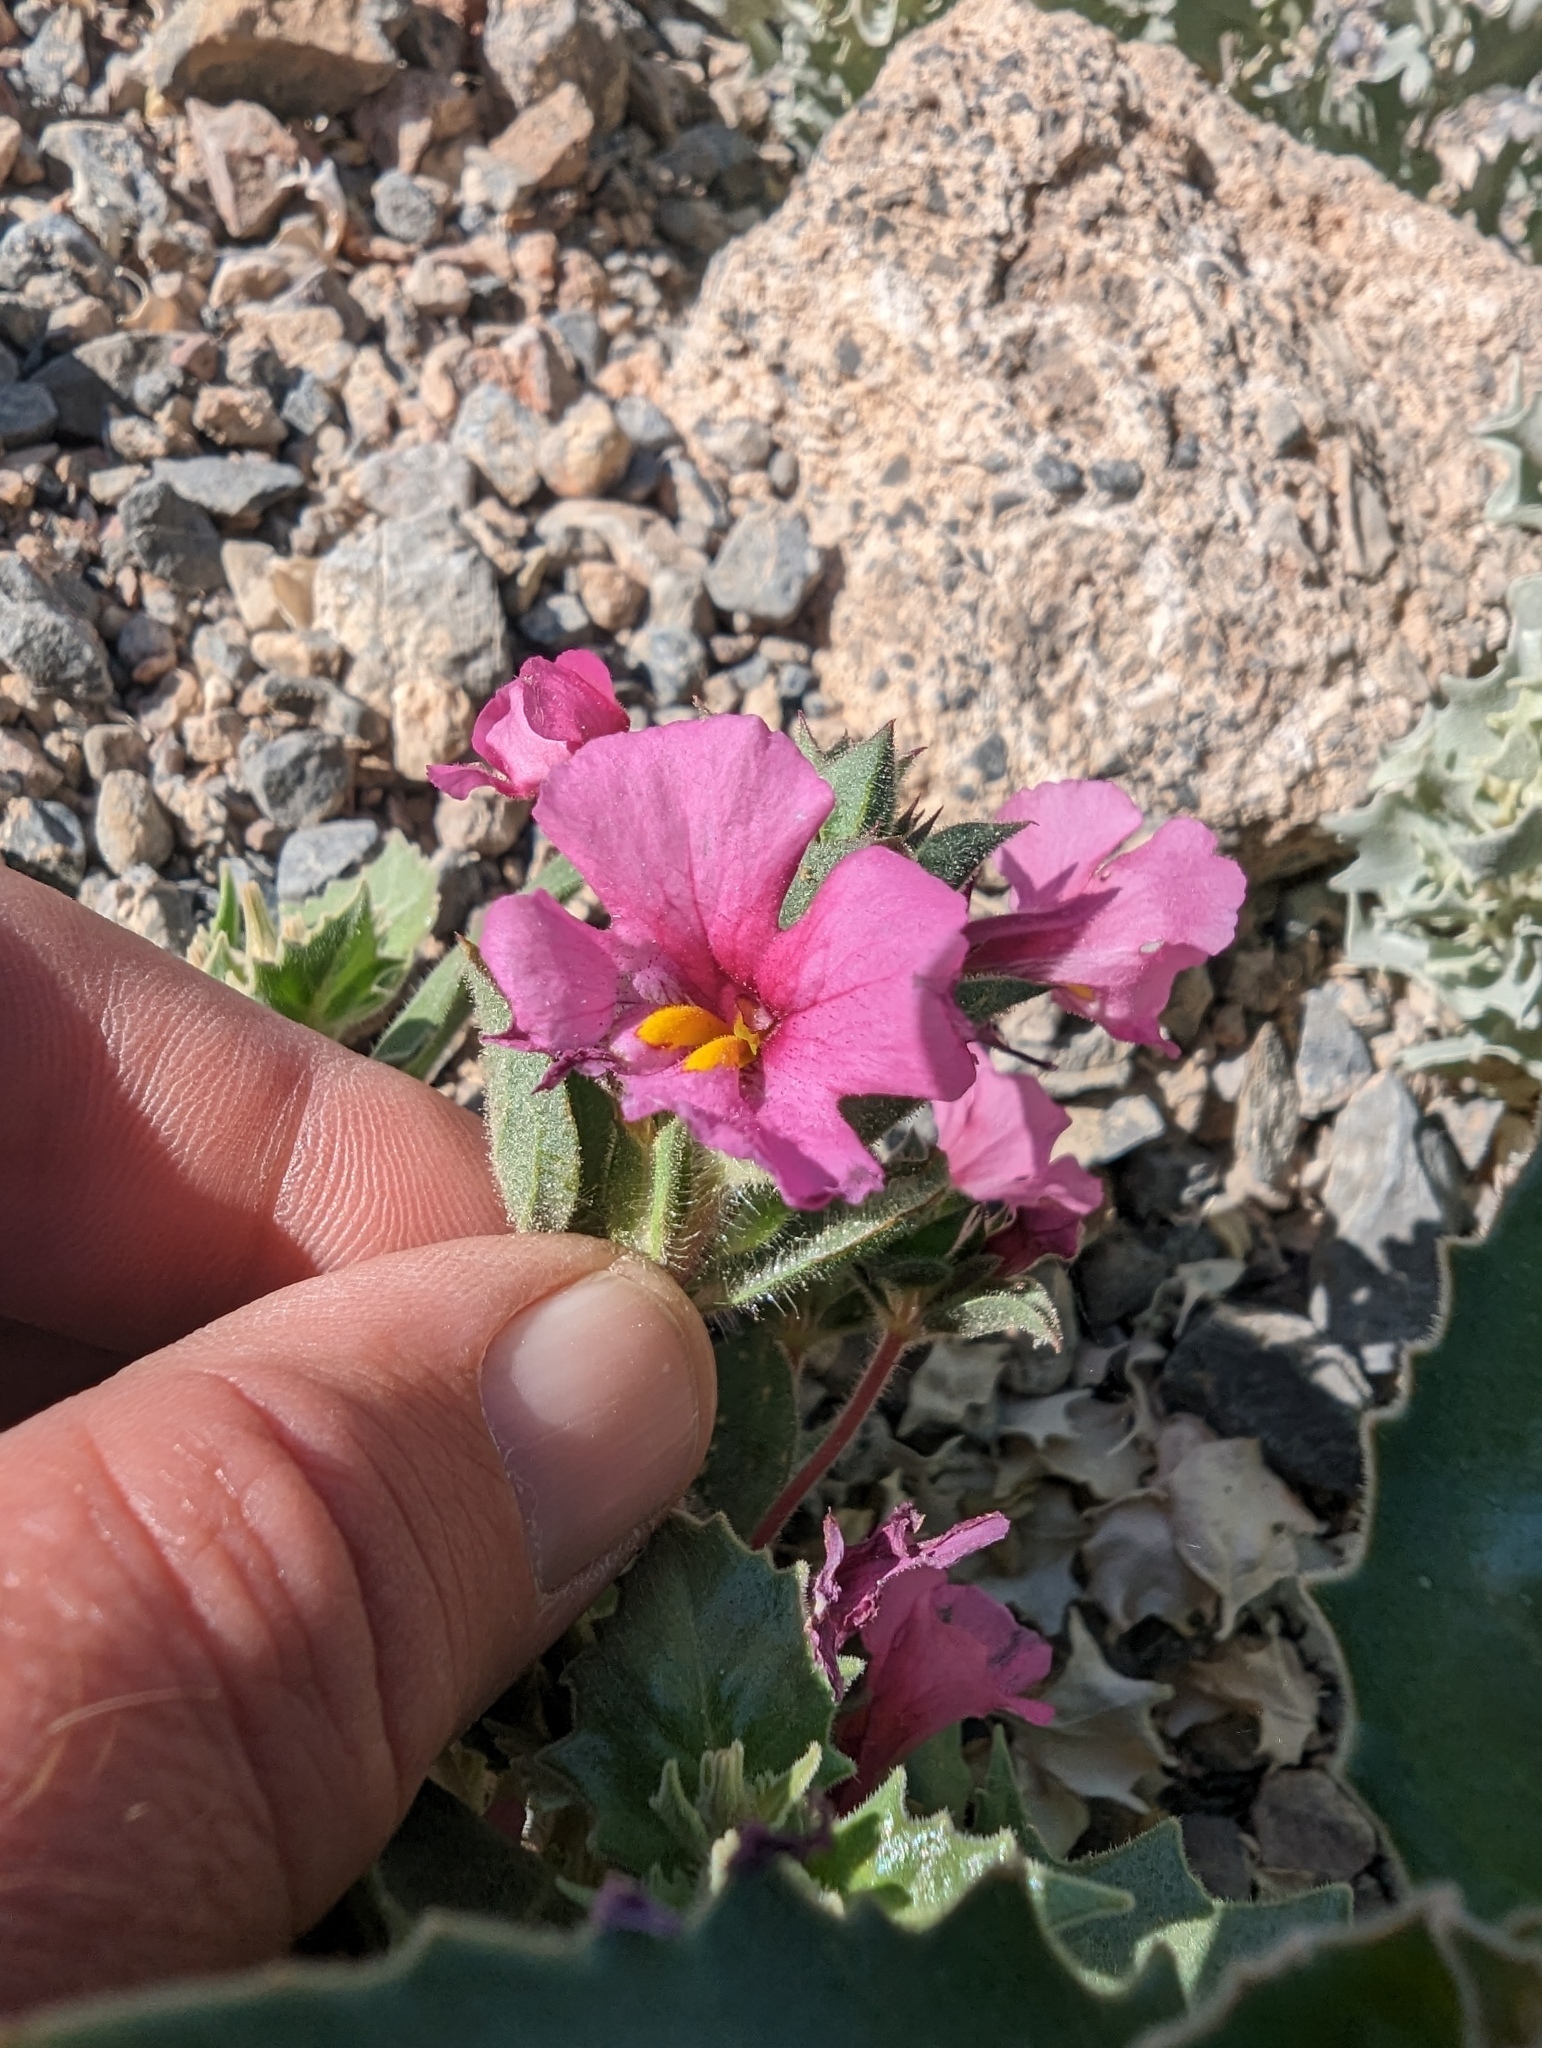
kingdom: Plantae
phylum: Tracheophyta
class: Magnoliopsida
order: Lamiales
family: Phrymaceae
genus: Diplacus
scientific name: Diplacus bigelovii
